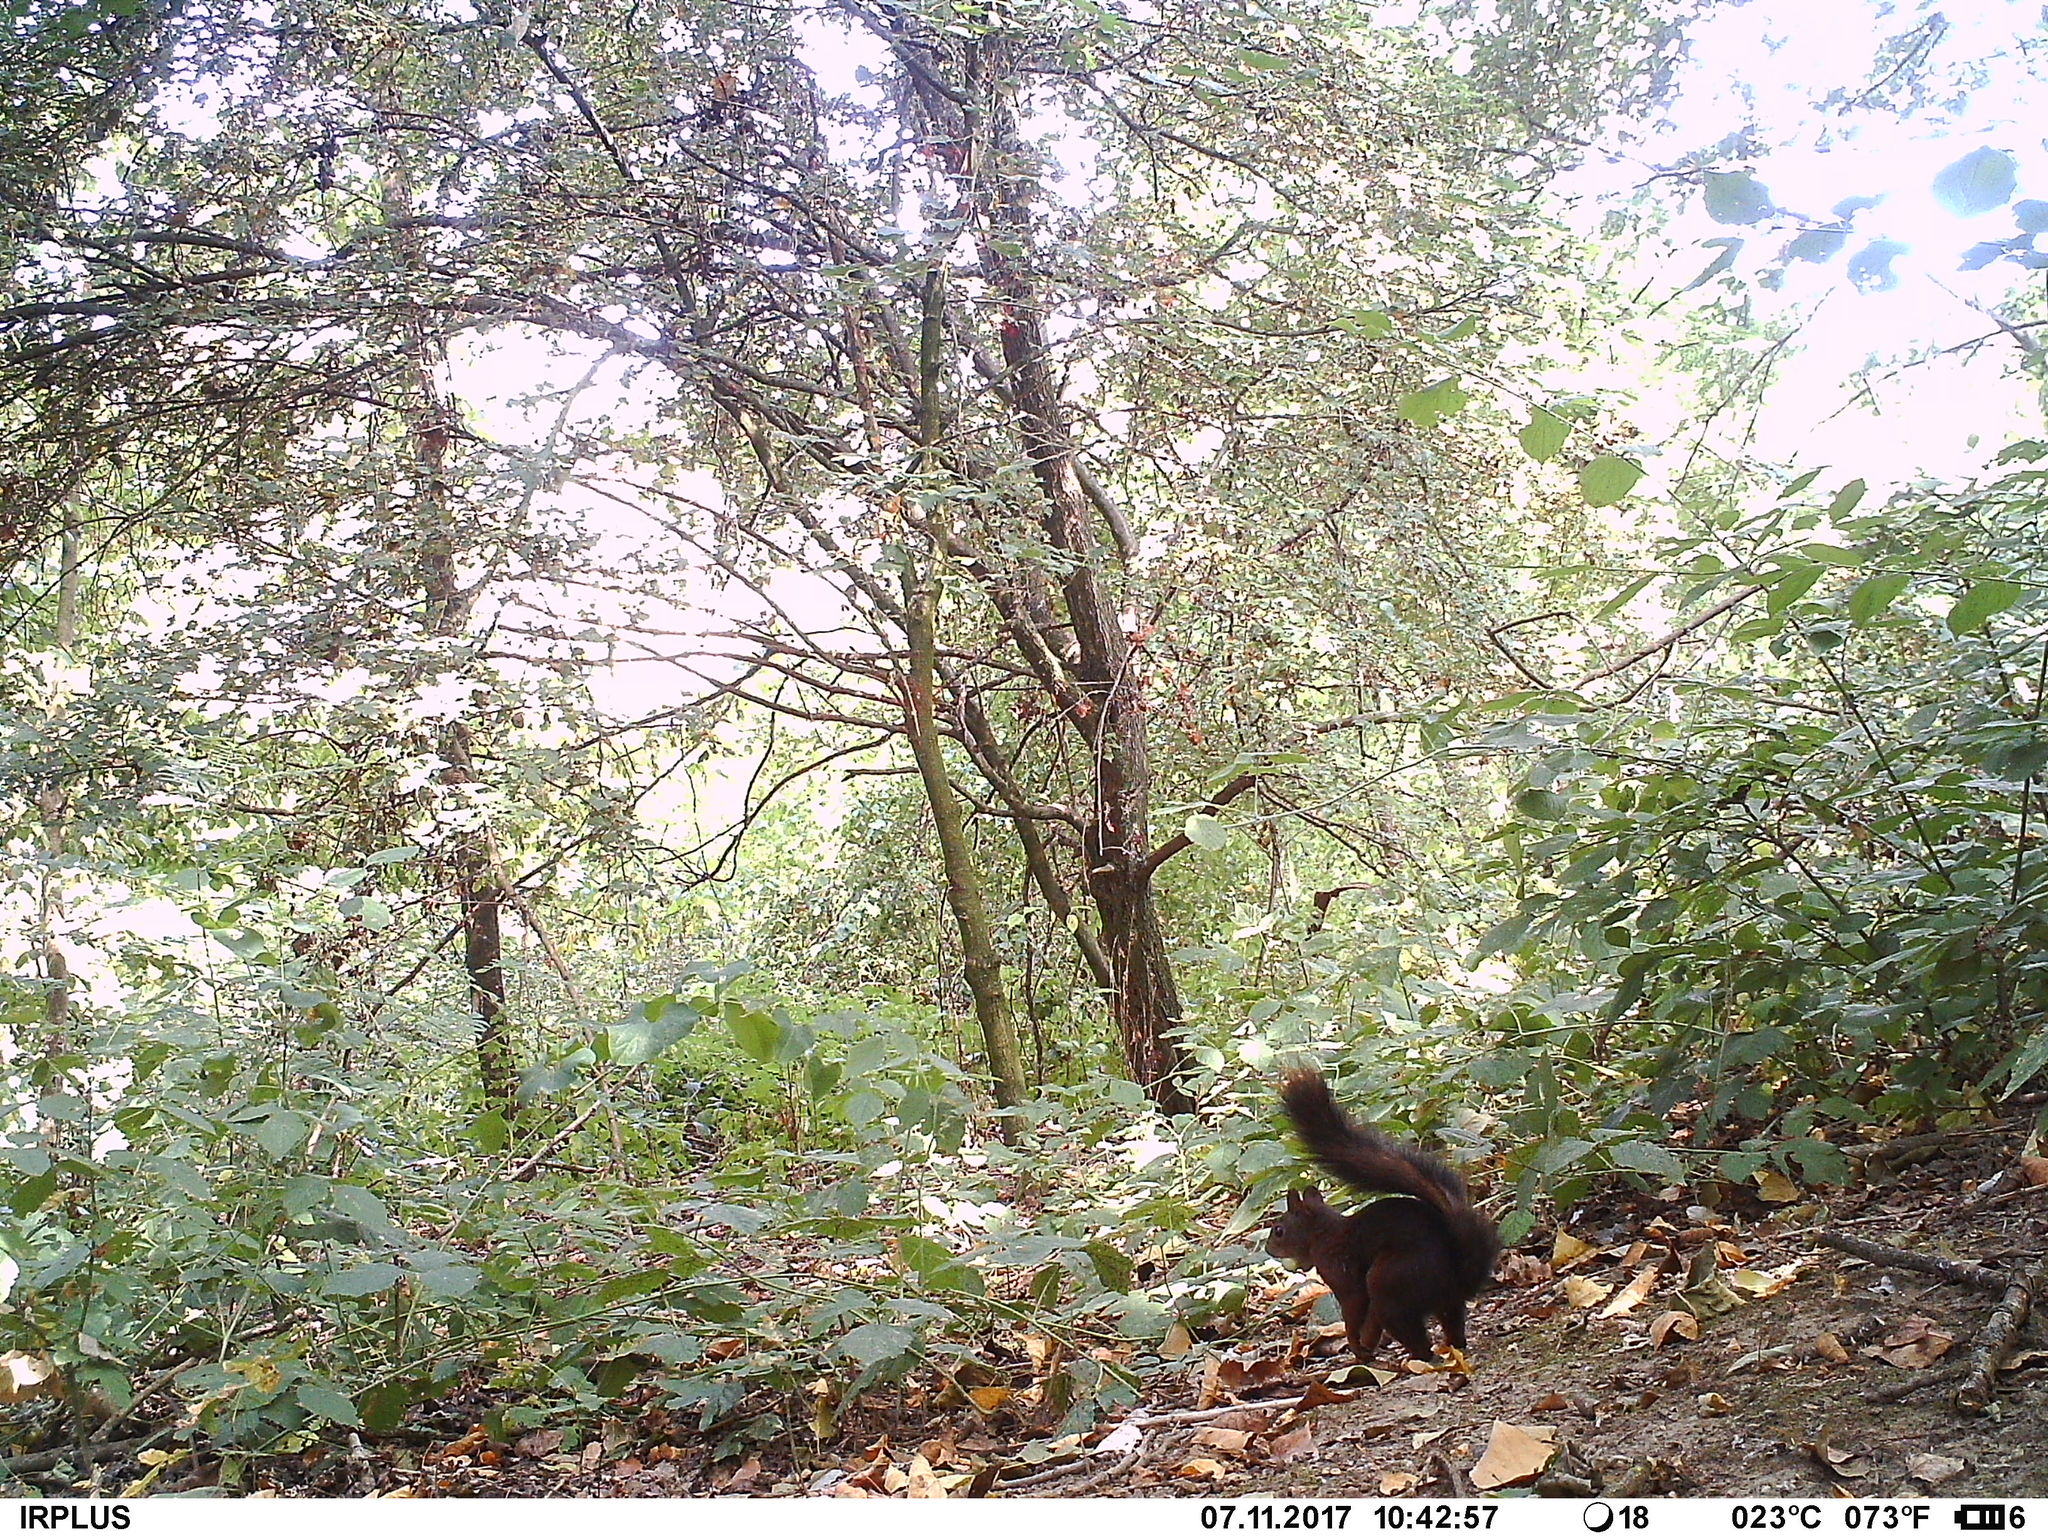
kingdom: Animalia
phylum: Chordata
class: Mammalia
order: Rodentia
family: Sciuridae
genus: Sciurus
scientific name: Sciurus vulgaris
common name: Eurasian red squirrel
